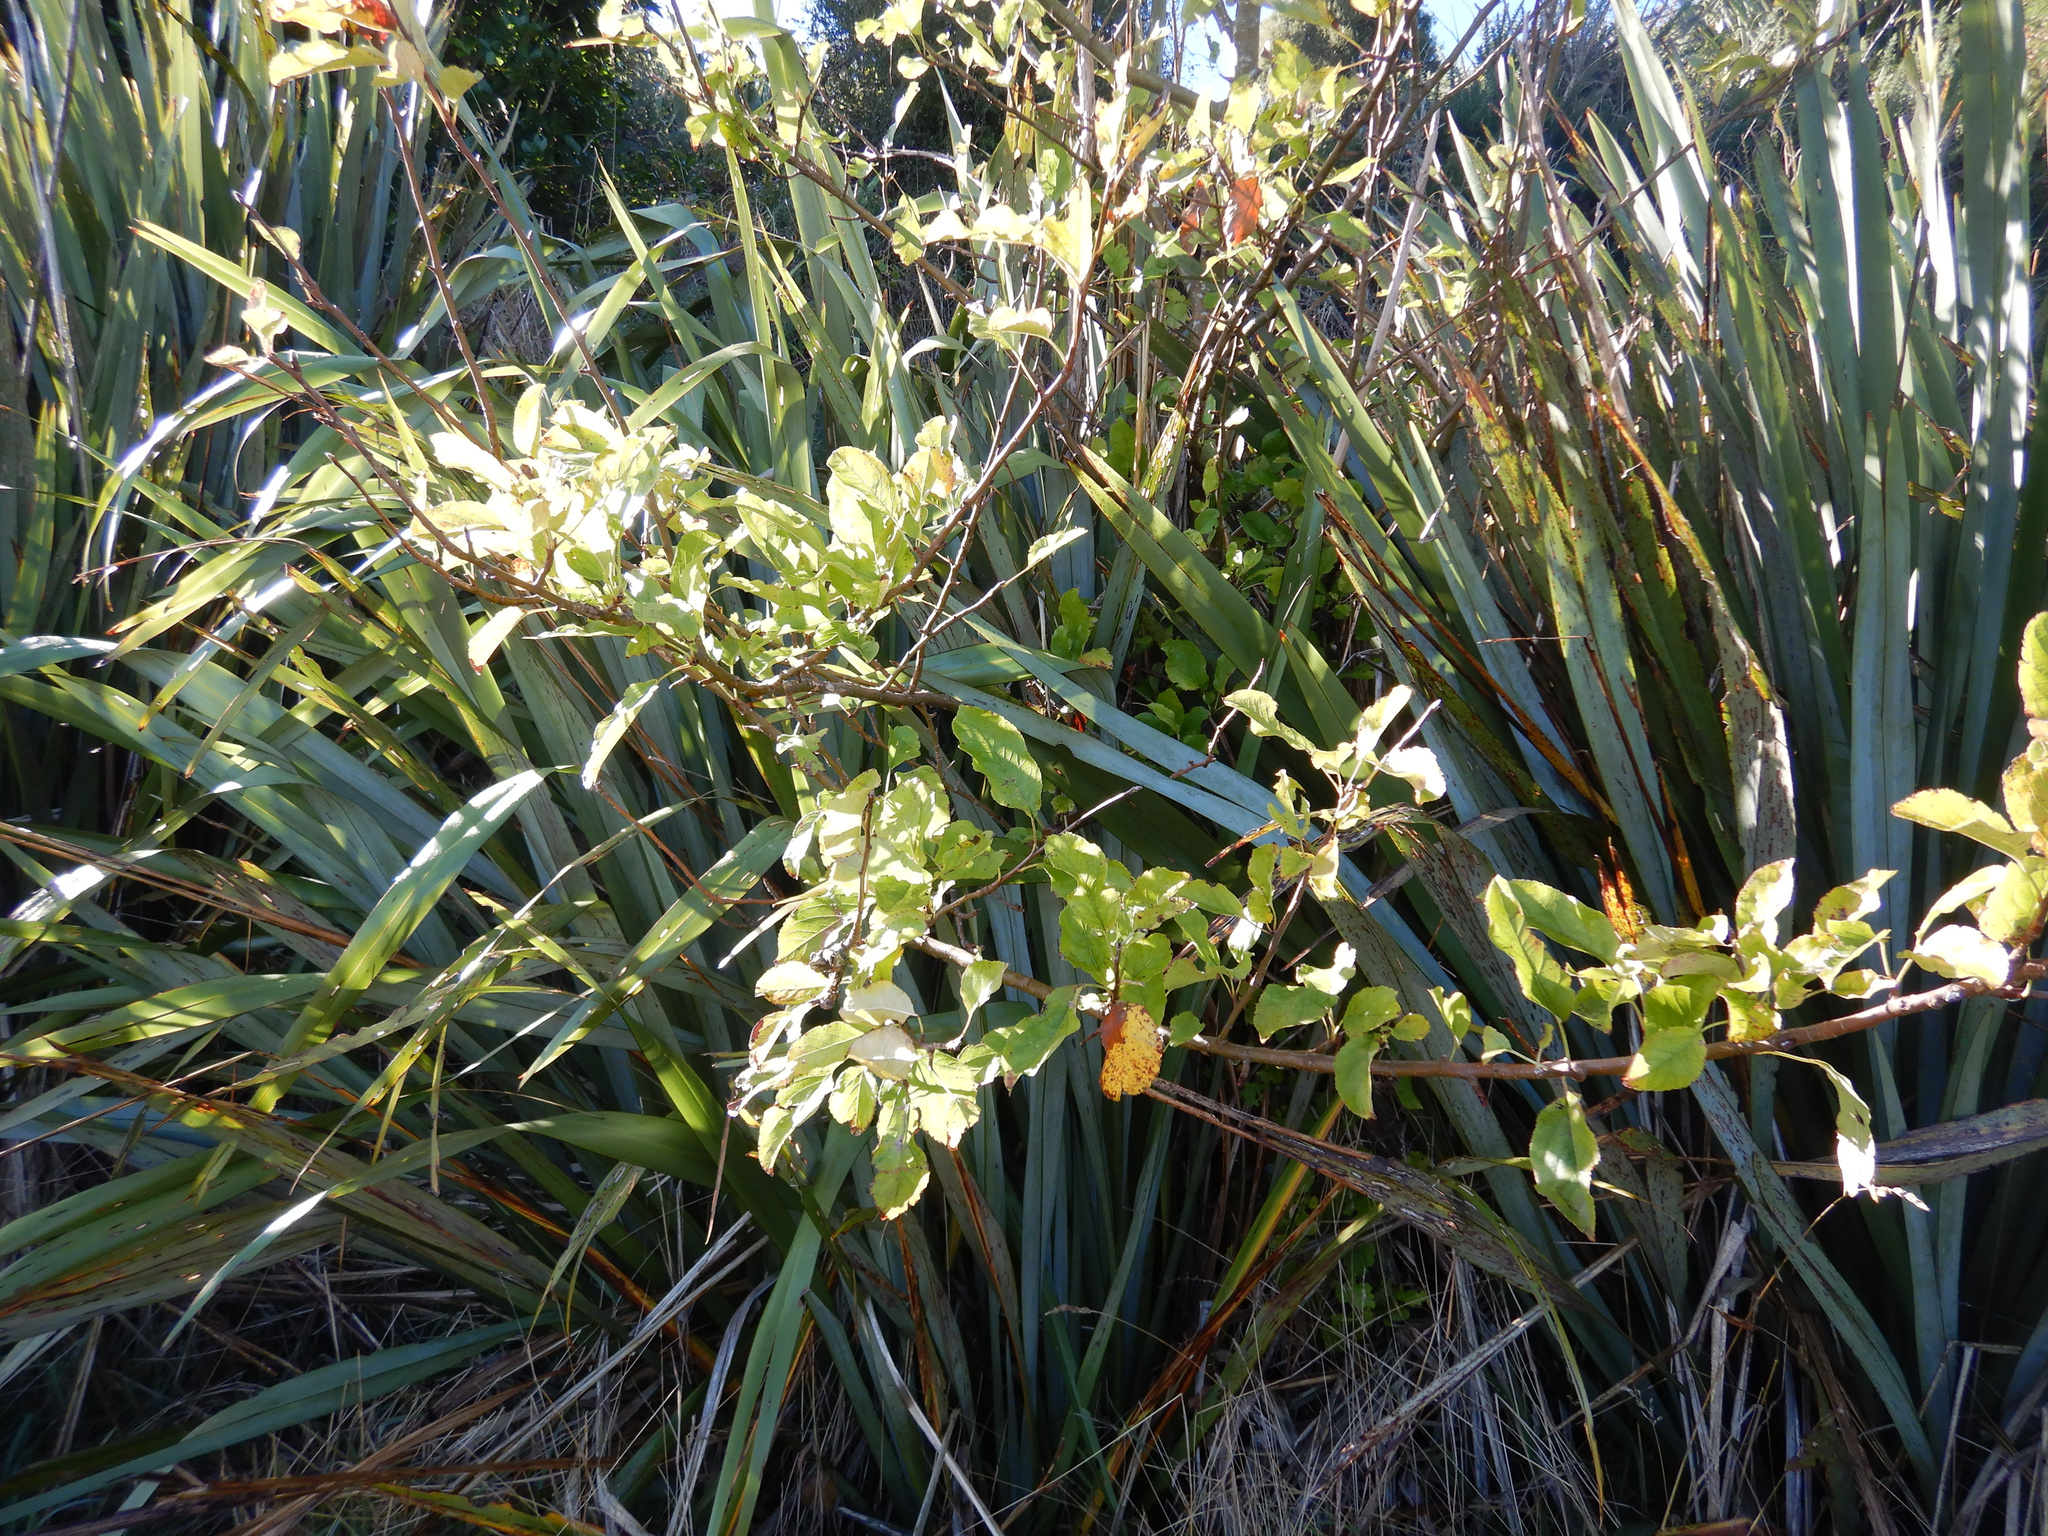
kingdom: Plantae
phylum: Tracheophyta
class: Magnoliopsida
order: Rosales
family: Rosaceae
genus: Malus
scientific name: Malus domestica
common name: Apple
